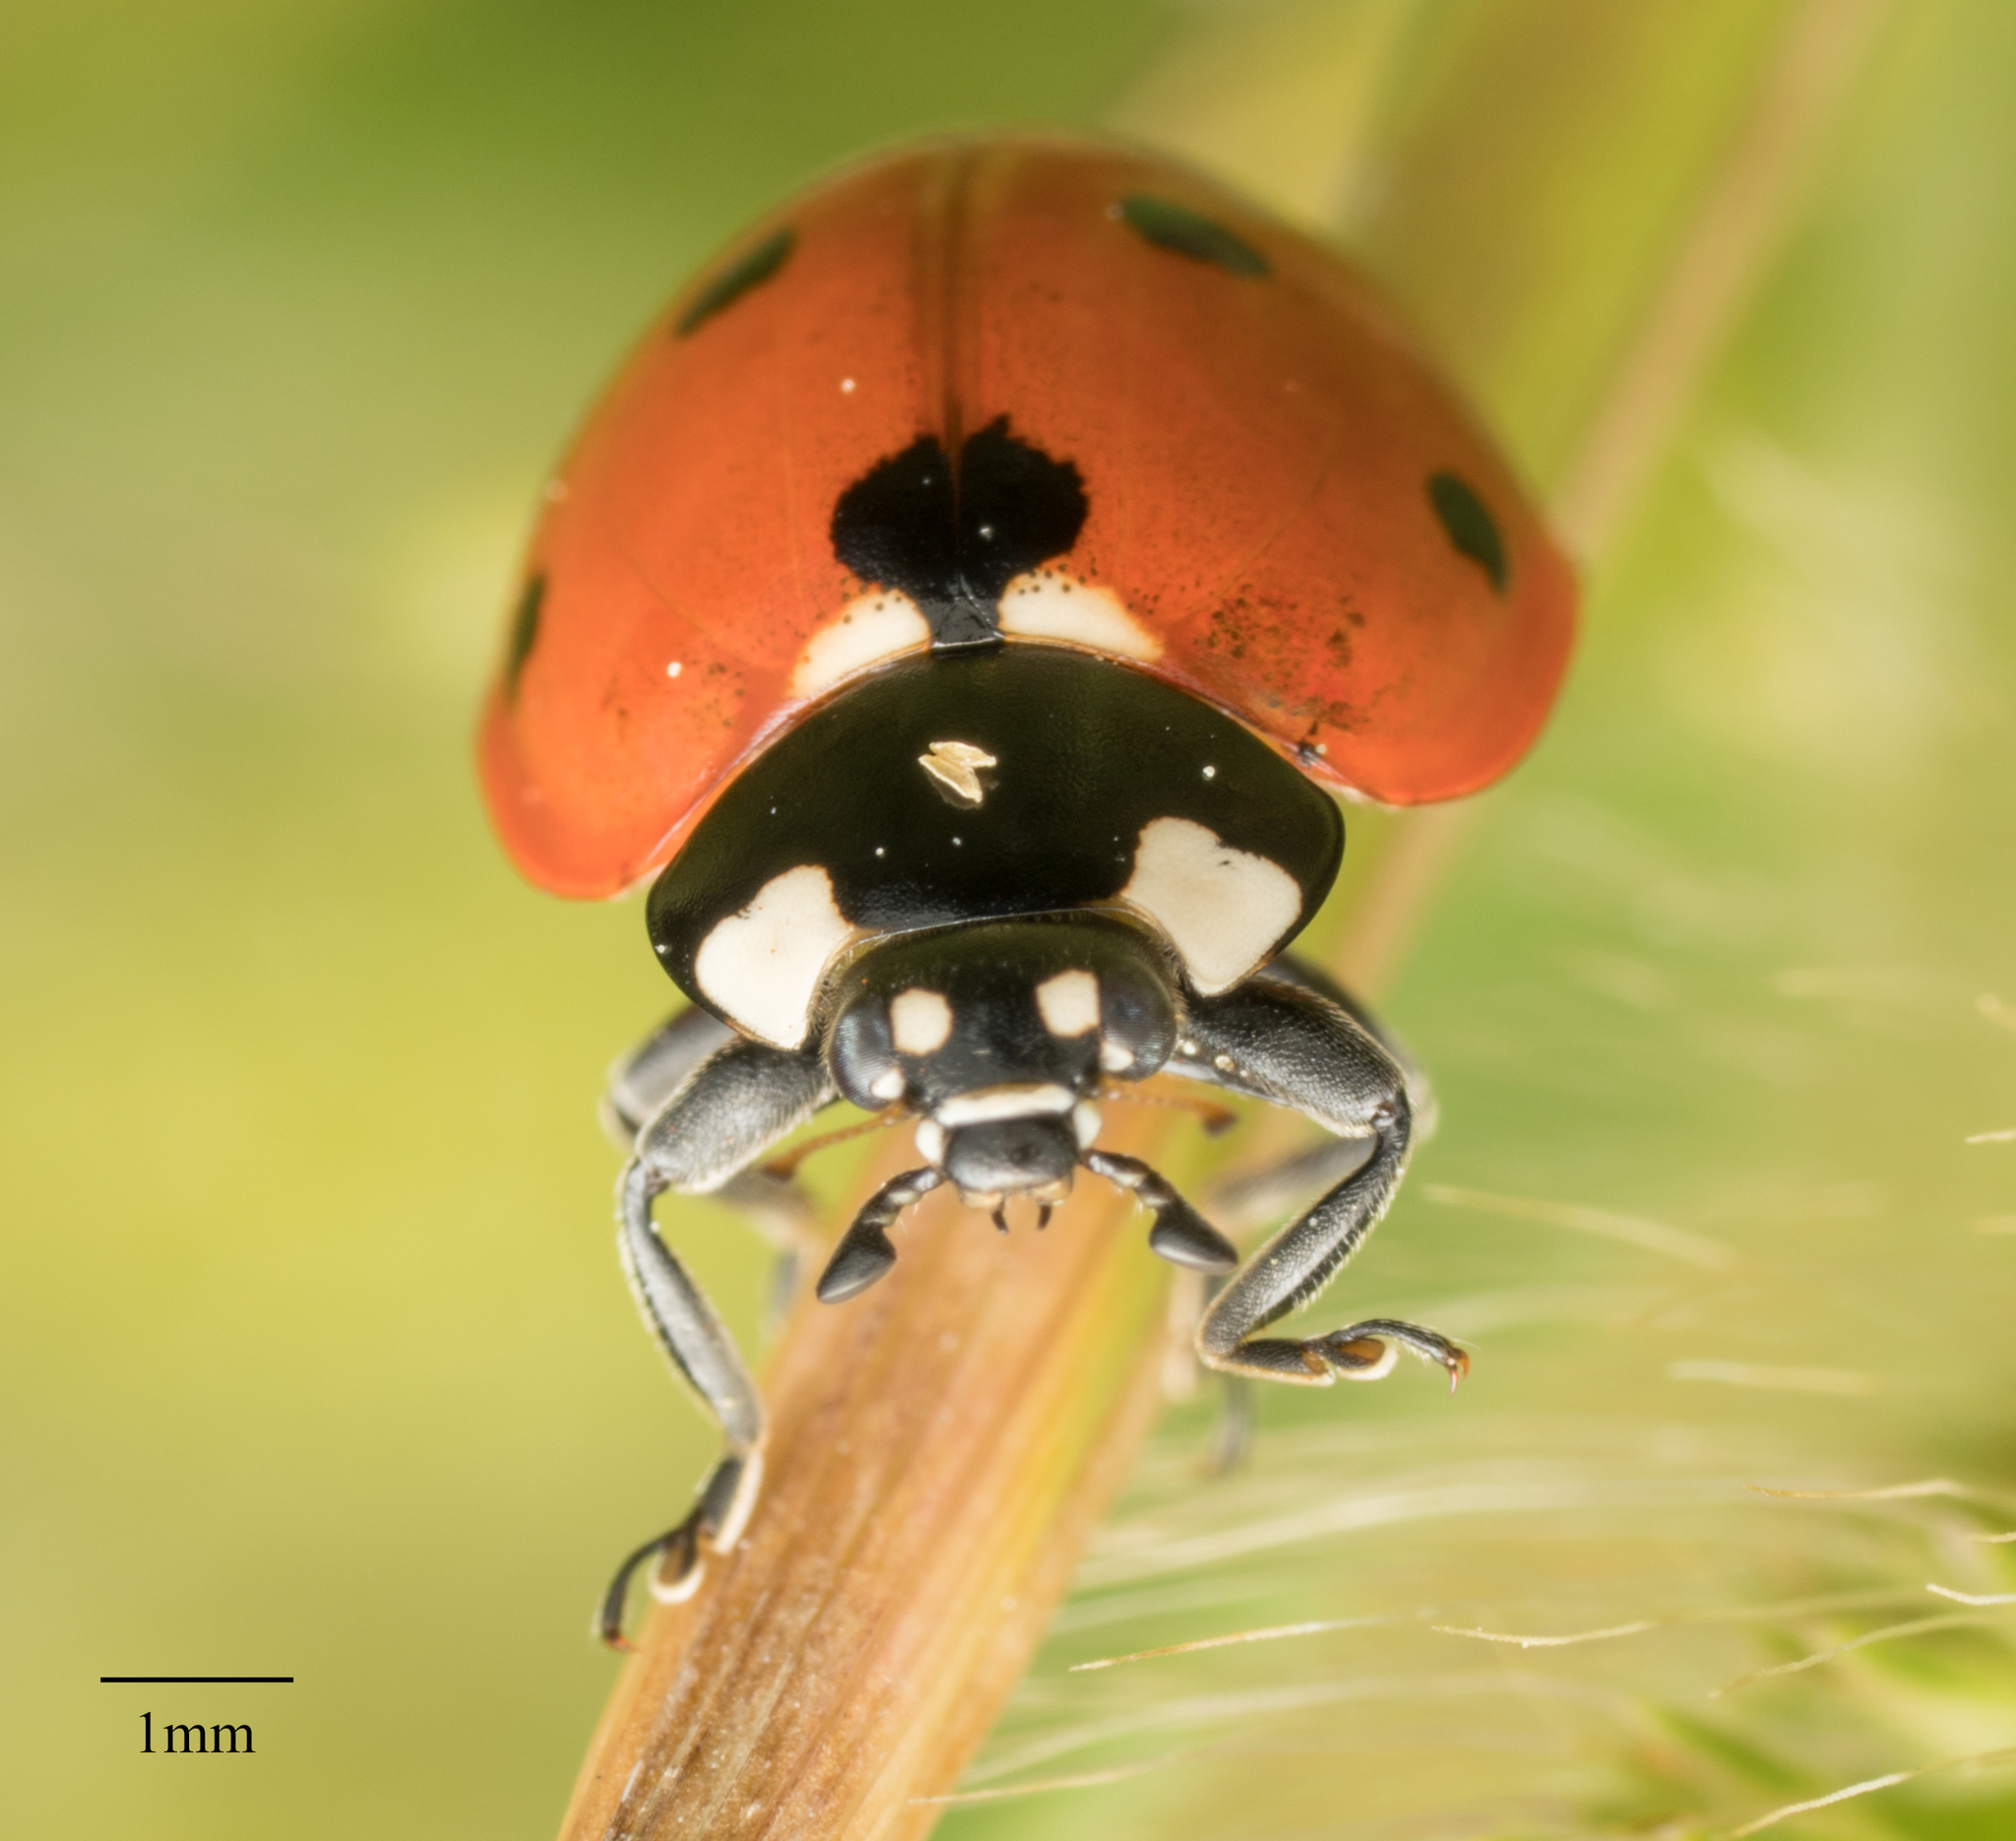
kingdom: Animalia
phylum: Arthropoda
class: Insecta
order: Coleoptera
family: Coccinellidae
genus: Coccinella
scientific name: Coccinella septempunctata
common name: Sevenspotted lady beetle
